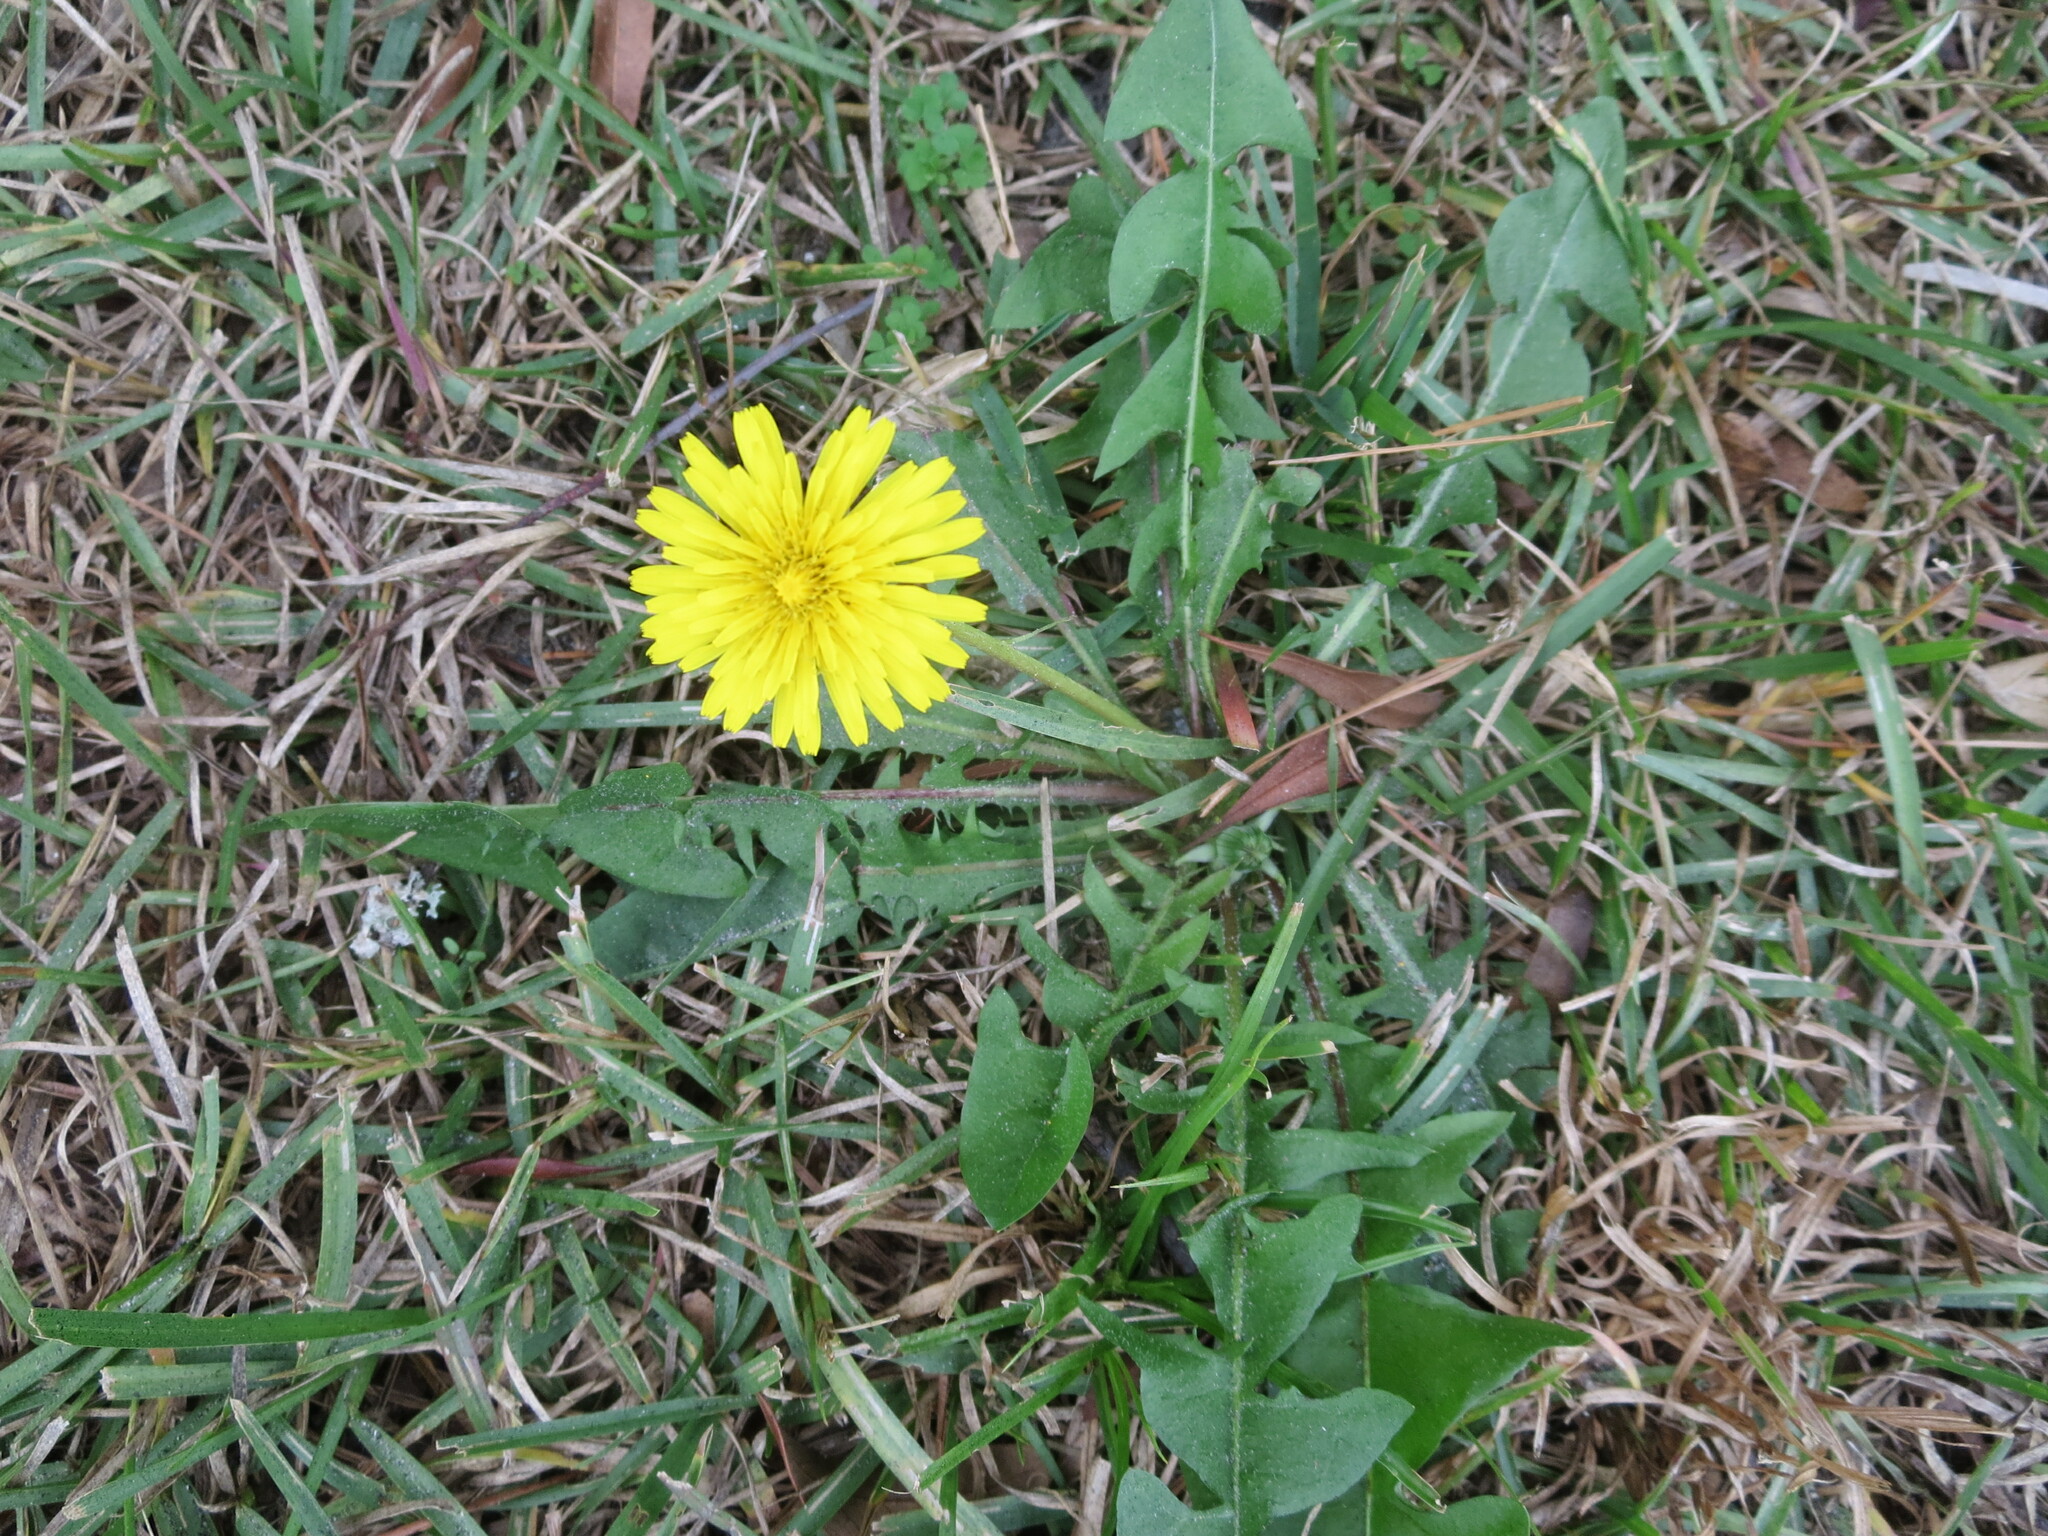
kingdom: Plantae
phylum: Tracheophyta
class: Magnoliopsida
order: Asterales
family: Asteraceae
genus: Taraxacum
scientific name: Taraxacum
